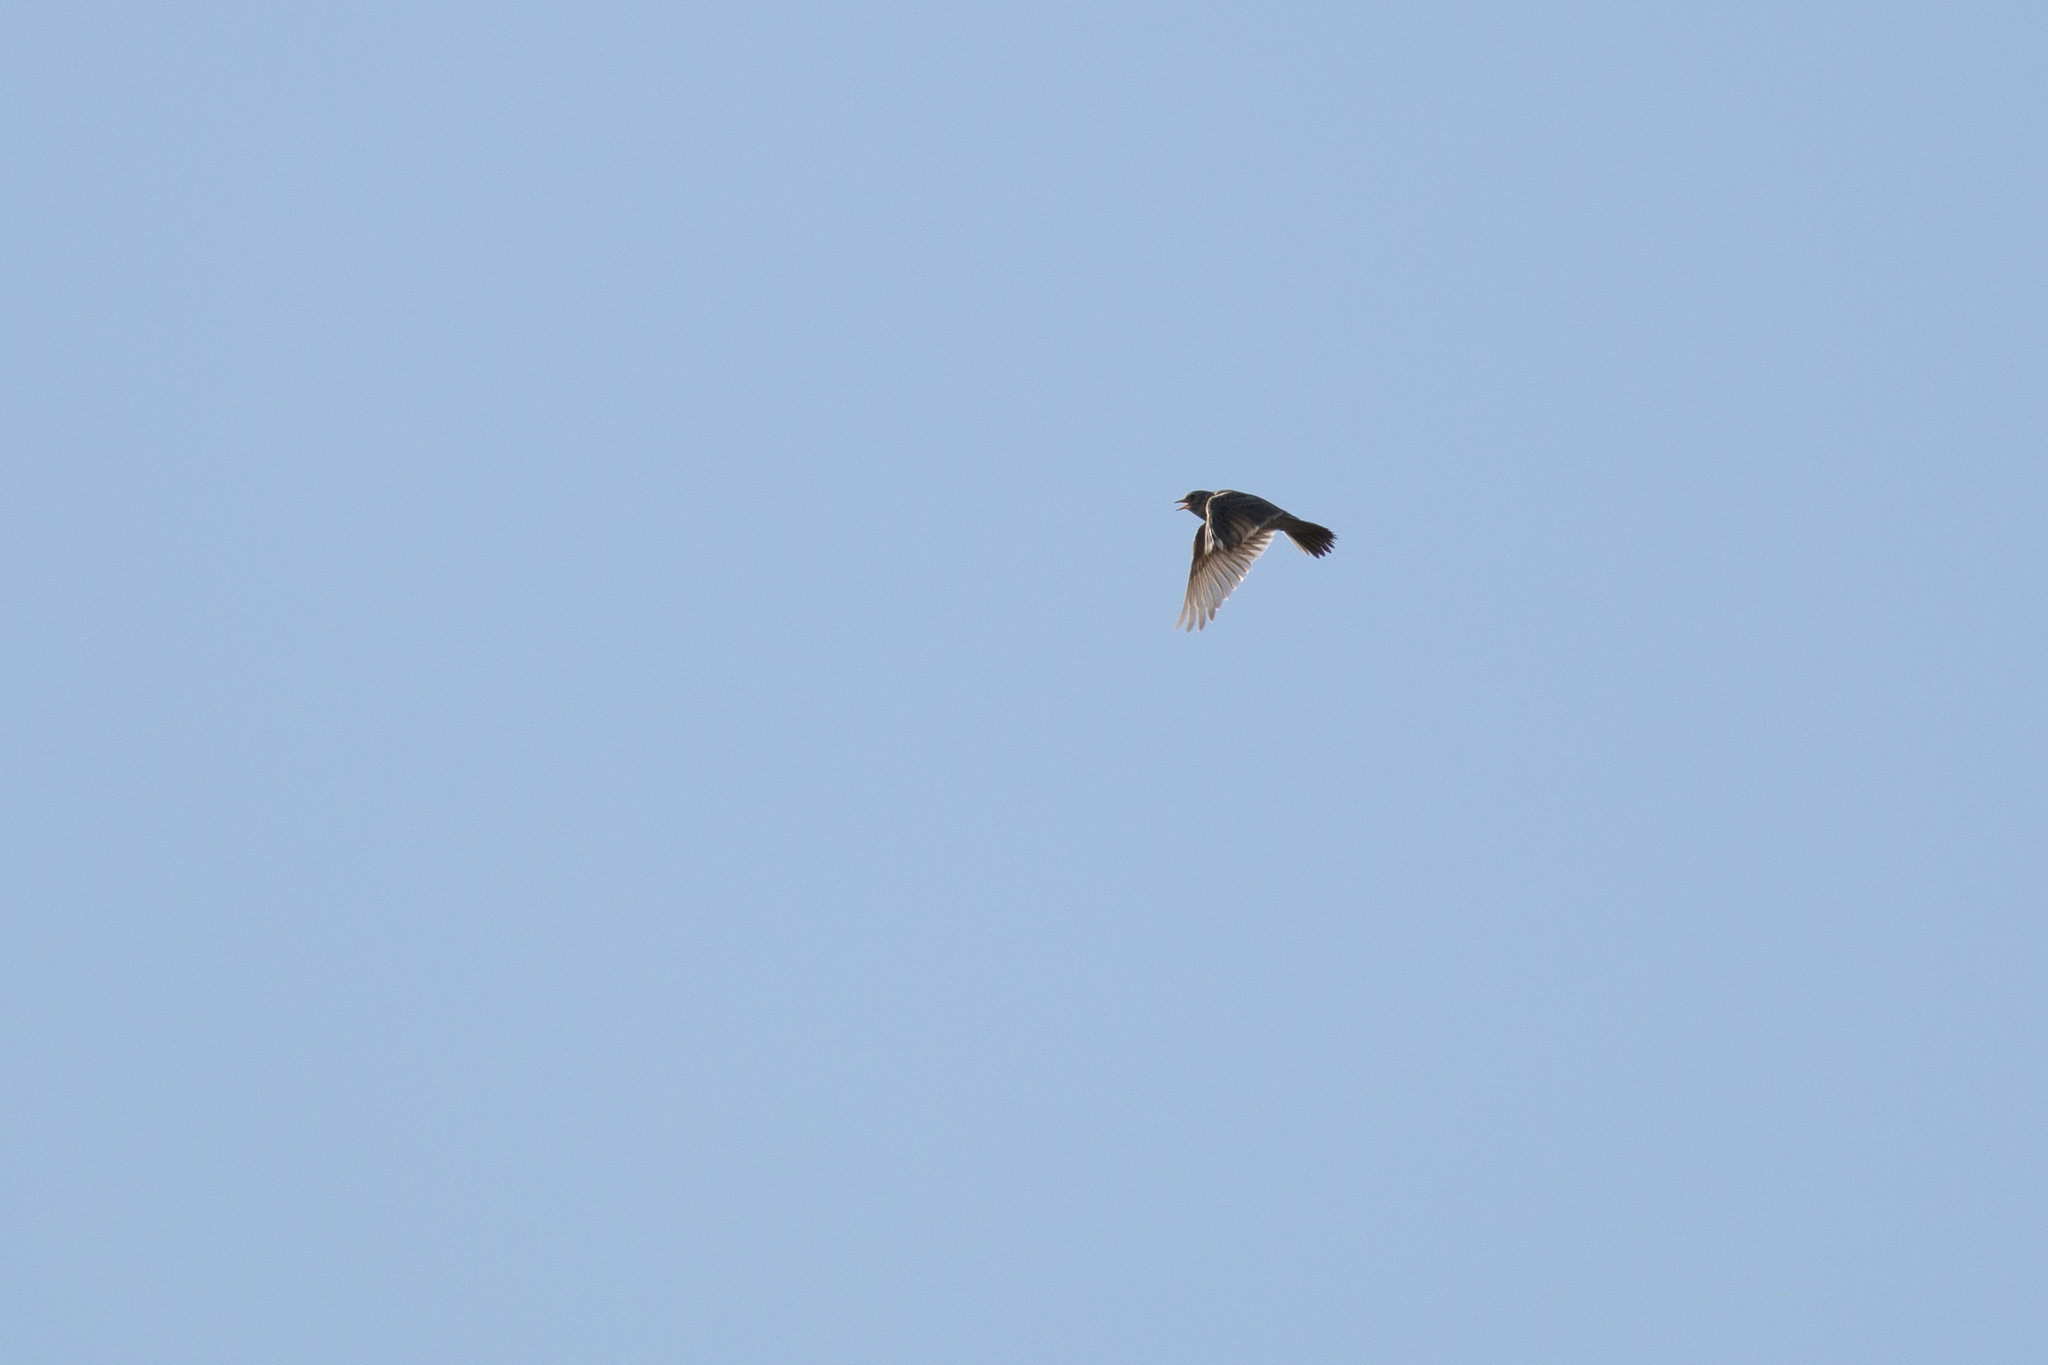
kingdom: Animalia
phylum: Chordata
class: Aves
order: Passeriformes
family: Alaudidae
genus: Lullula
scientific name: Lullula arborea
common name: Woodlark
